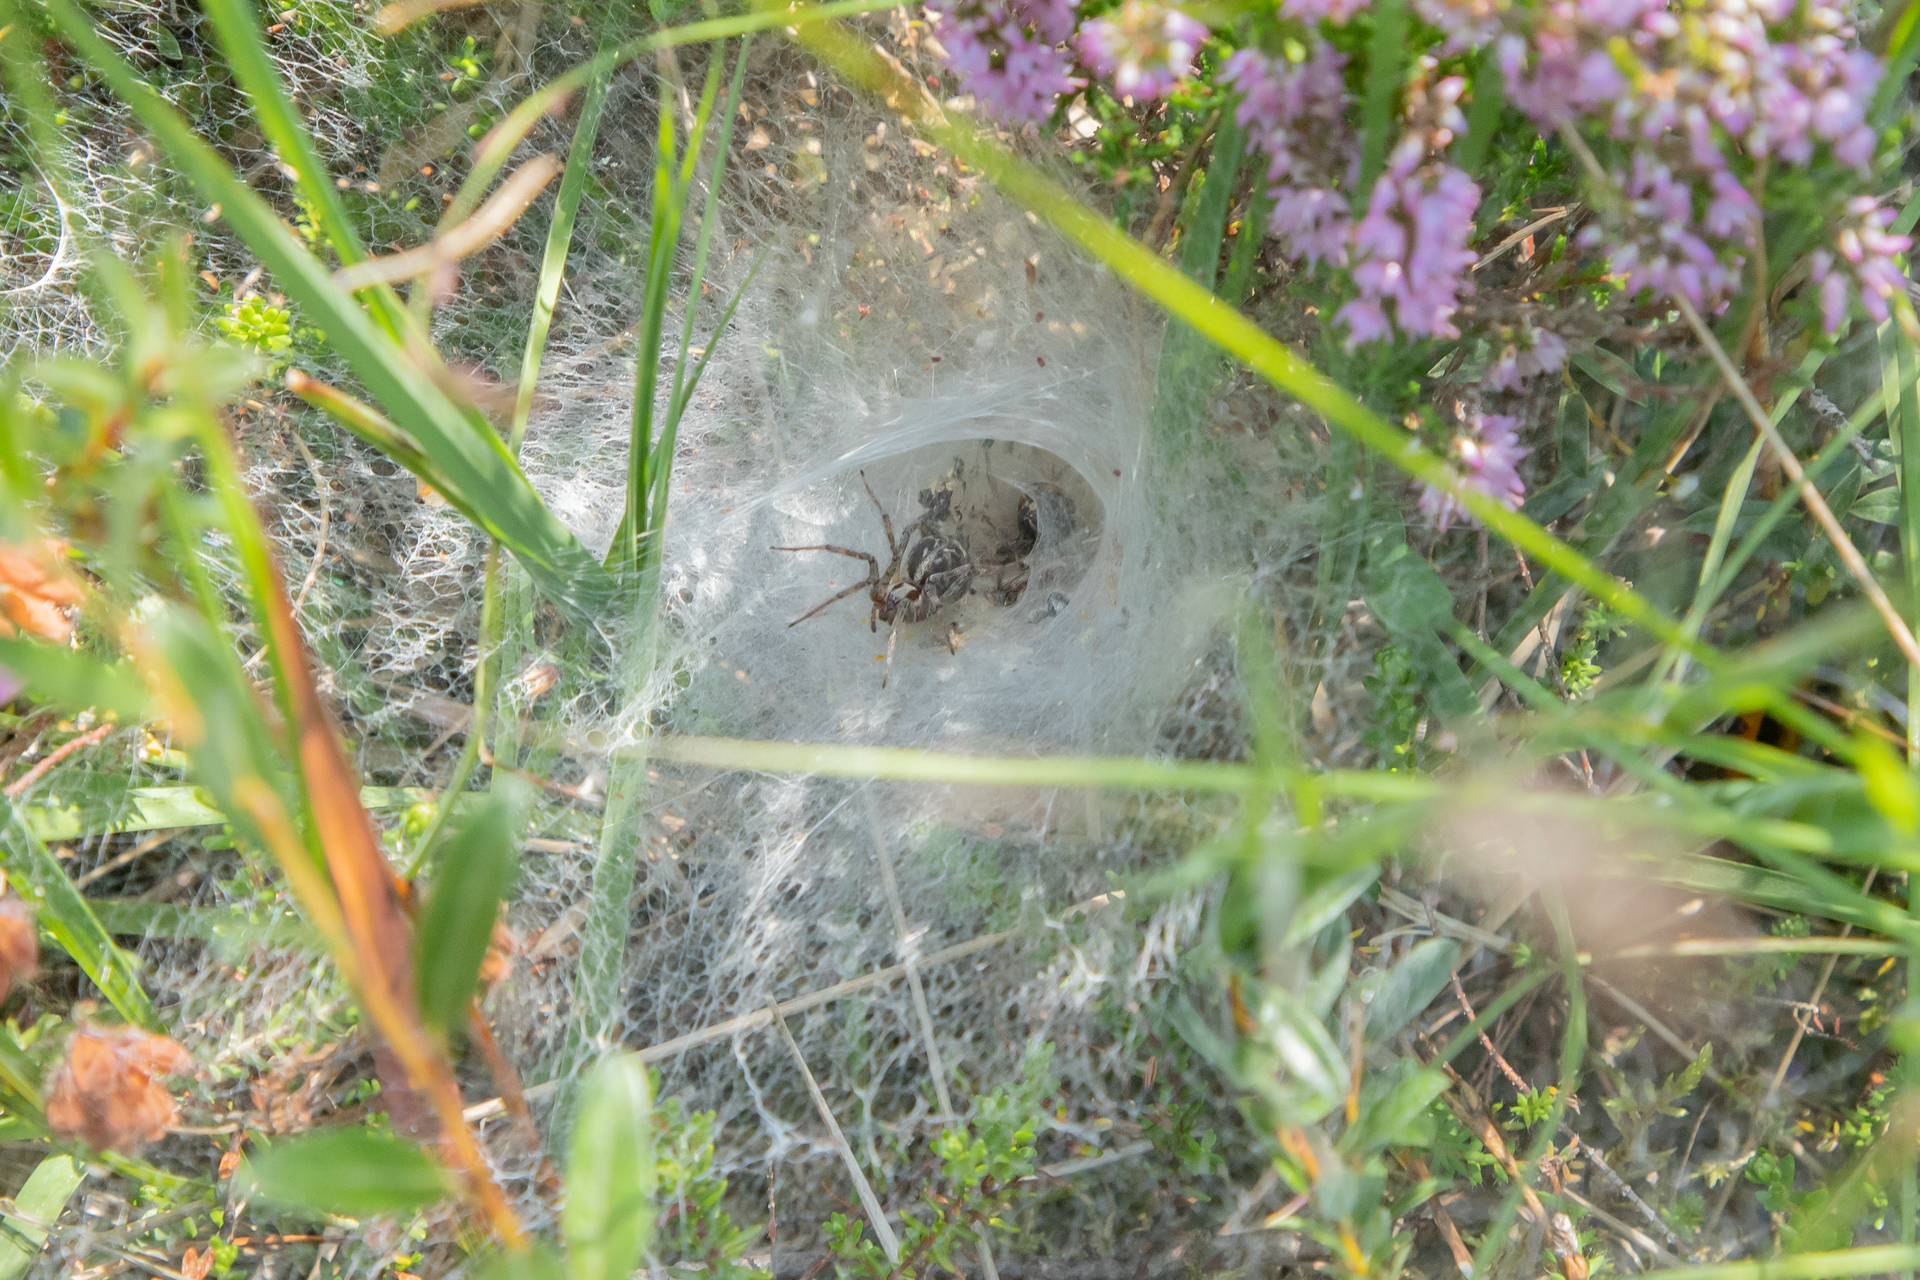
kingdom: Animalia
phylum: Arthropoda
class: Arachnida
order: Araneae
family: Agelenidae
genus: Agelena
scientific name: Agelena labyrinthica
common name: Labyrinth spider
